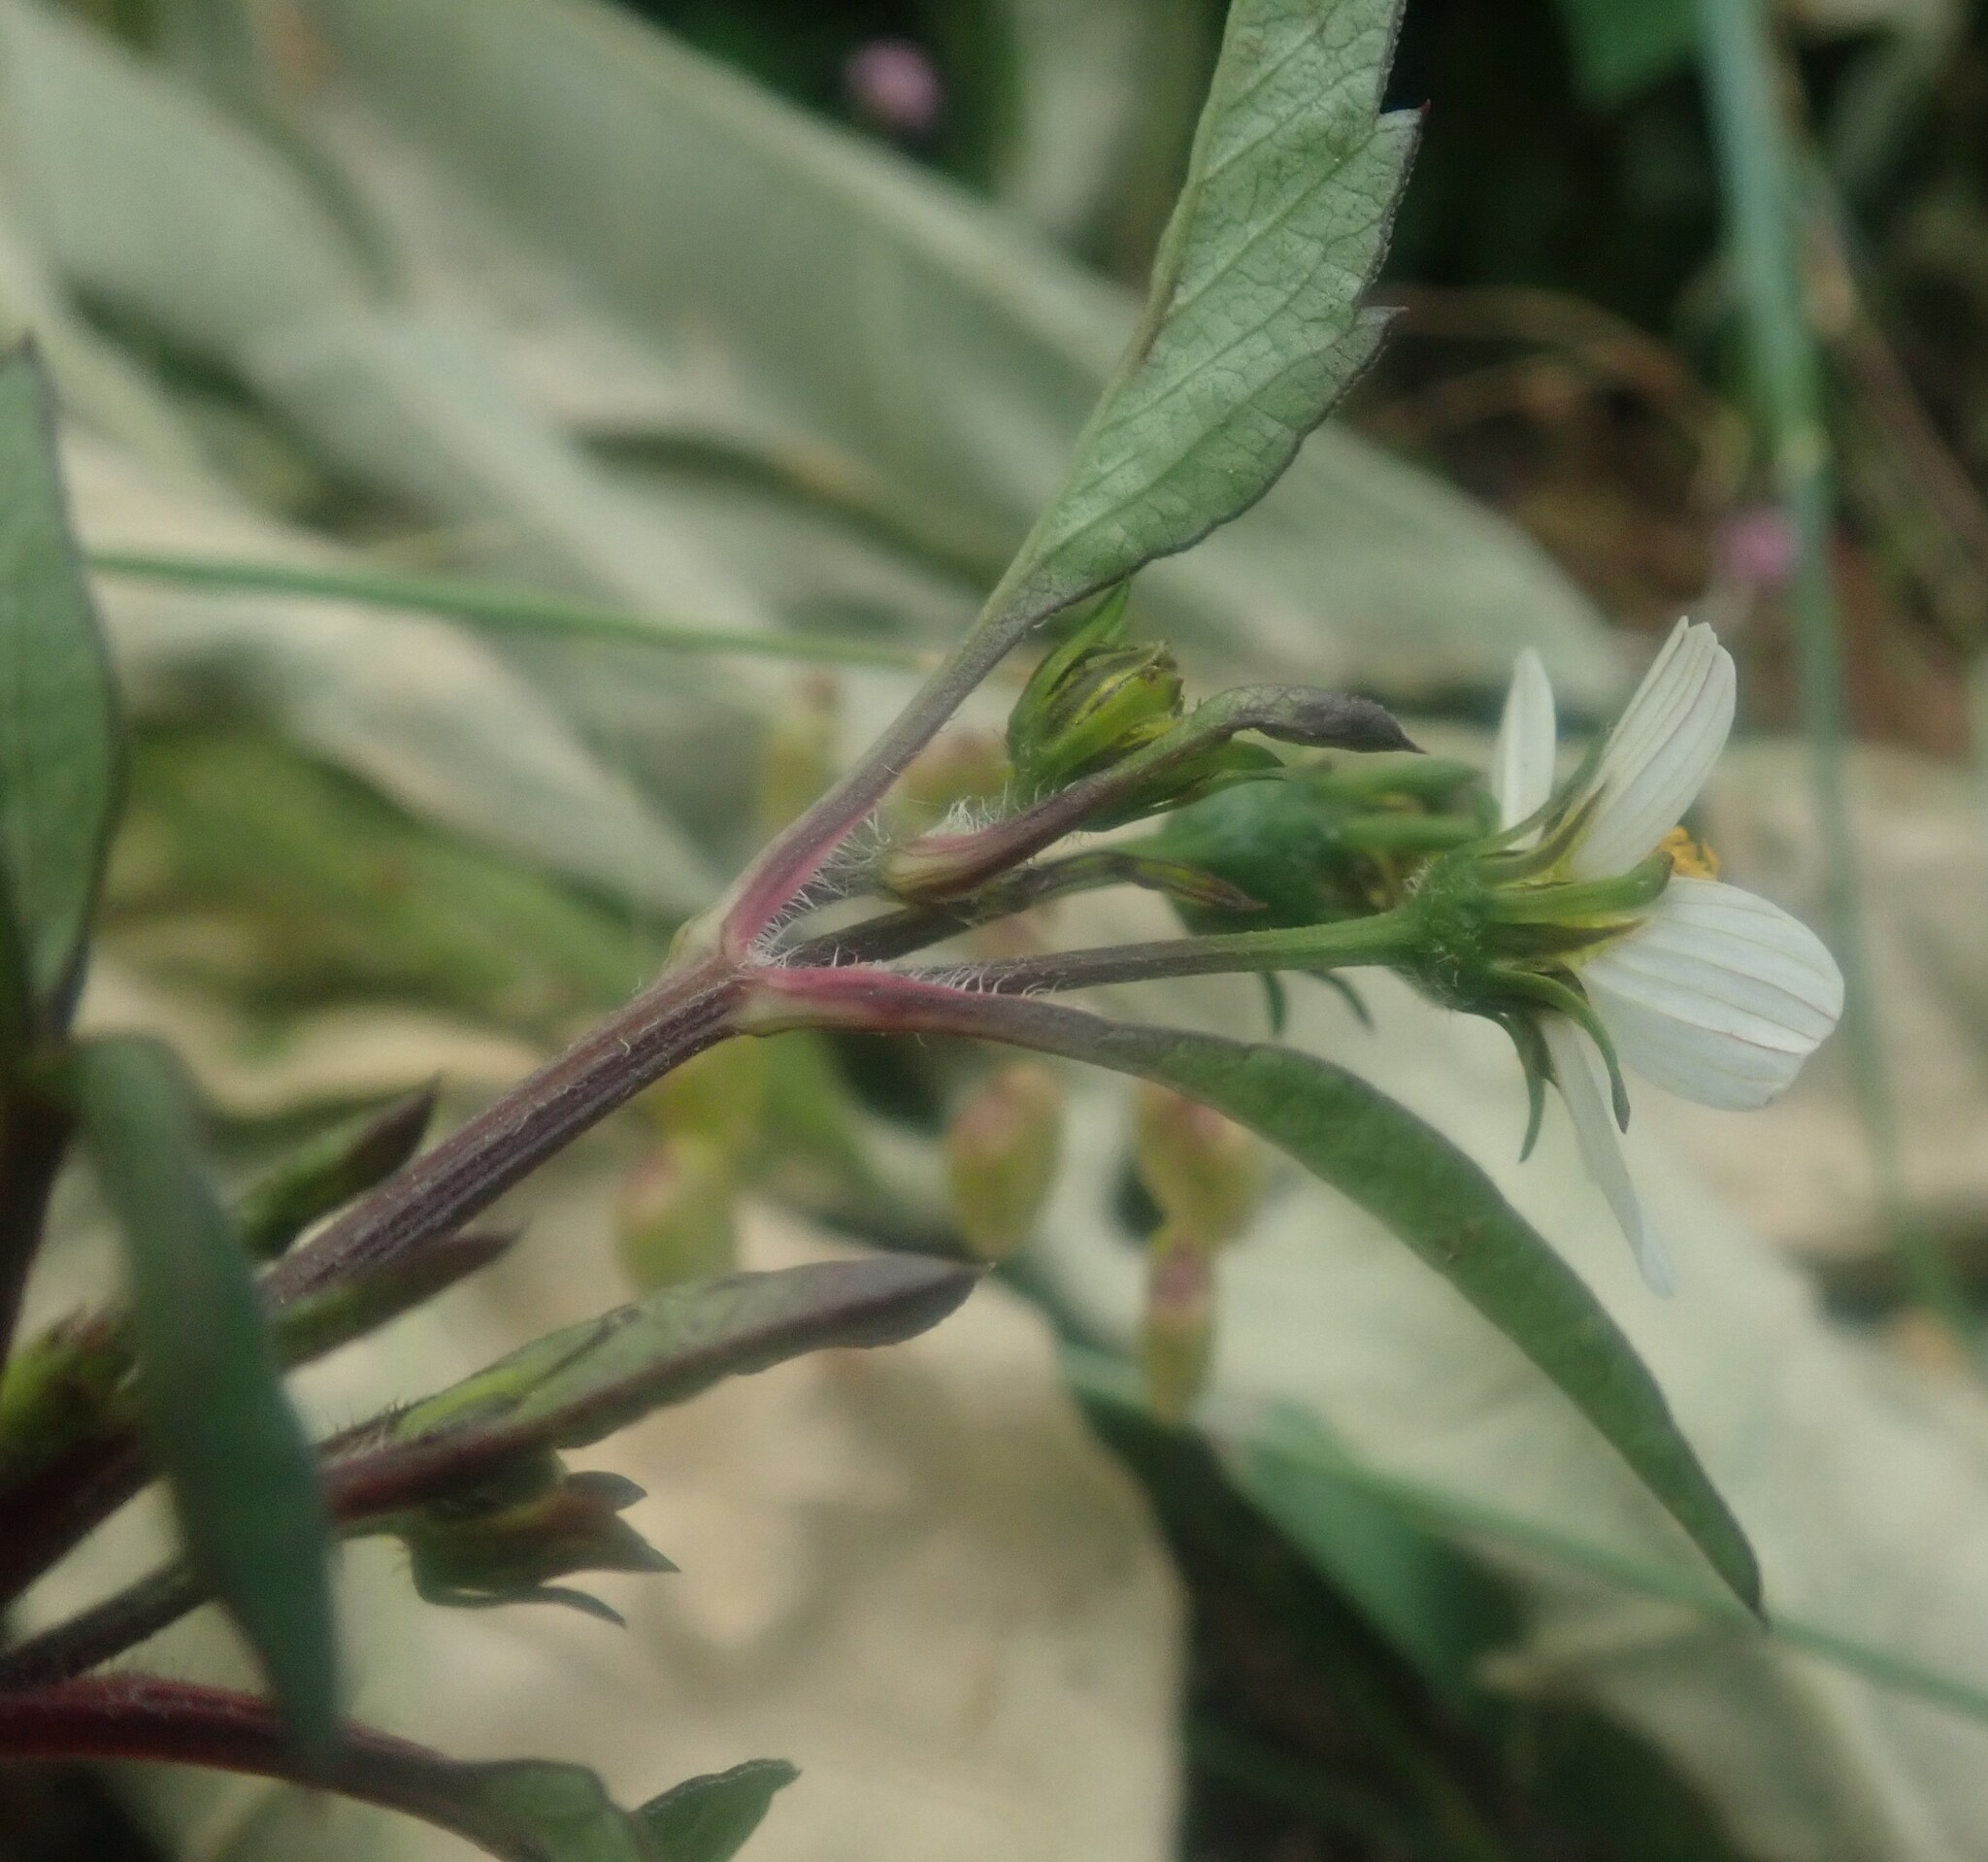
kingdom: Plantae
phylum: Tracheophyta
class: Magnoliopsida
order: Asterales
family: Asteraceae
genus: Bidens
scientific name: Bidens pilosa
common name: Black-jack
